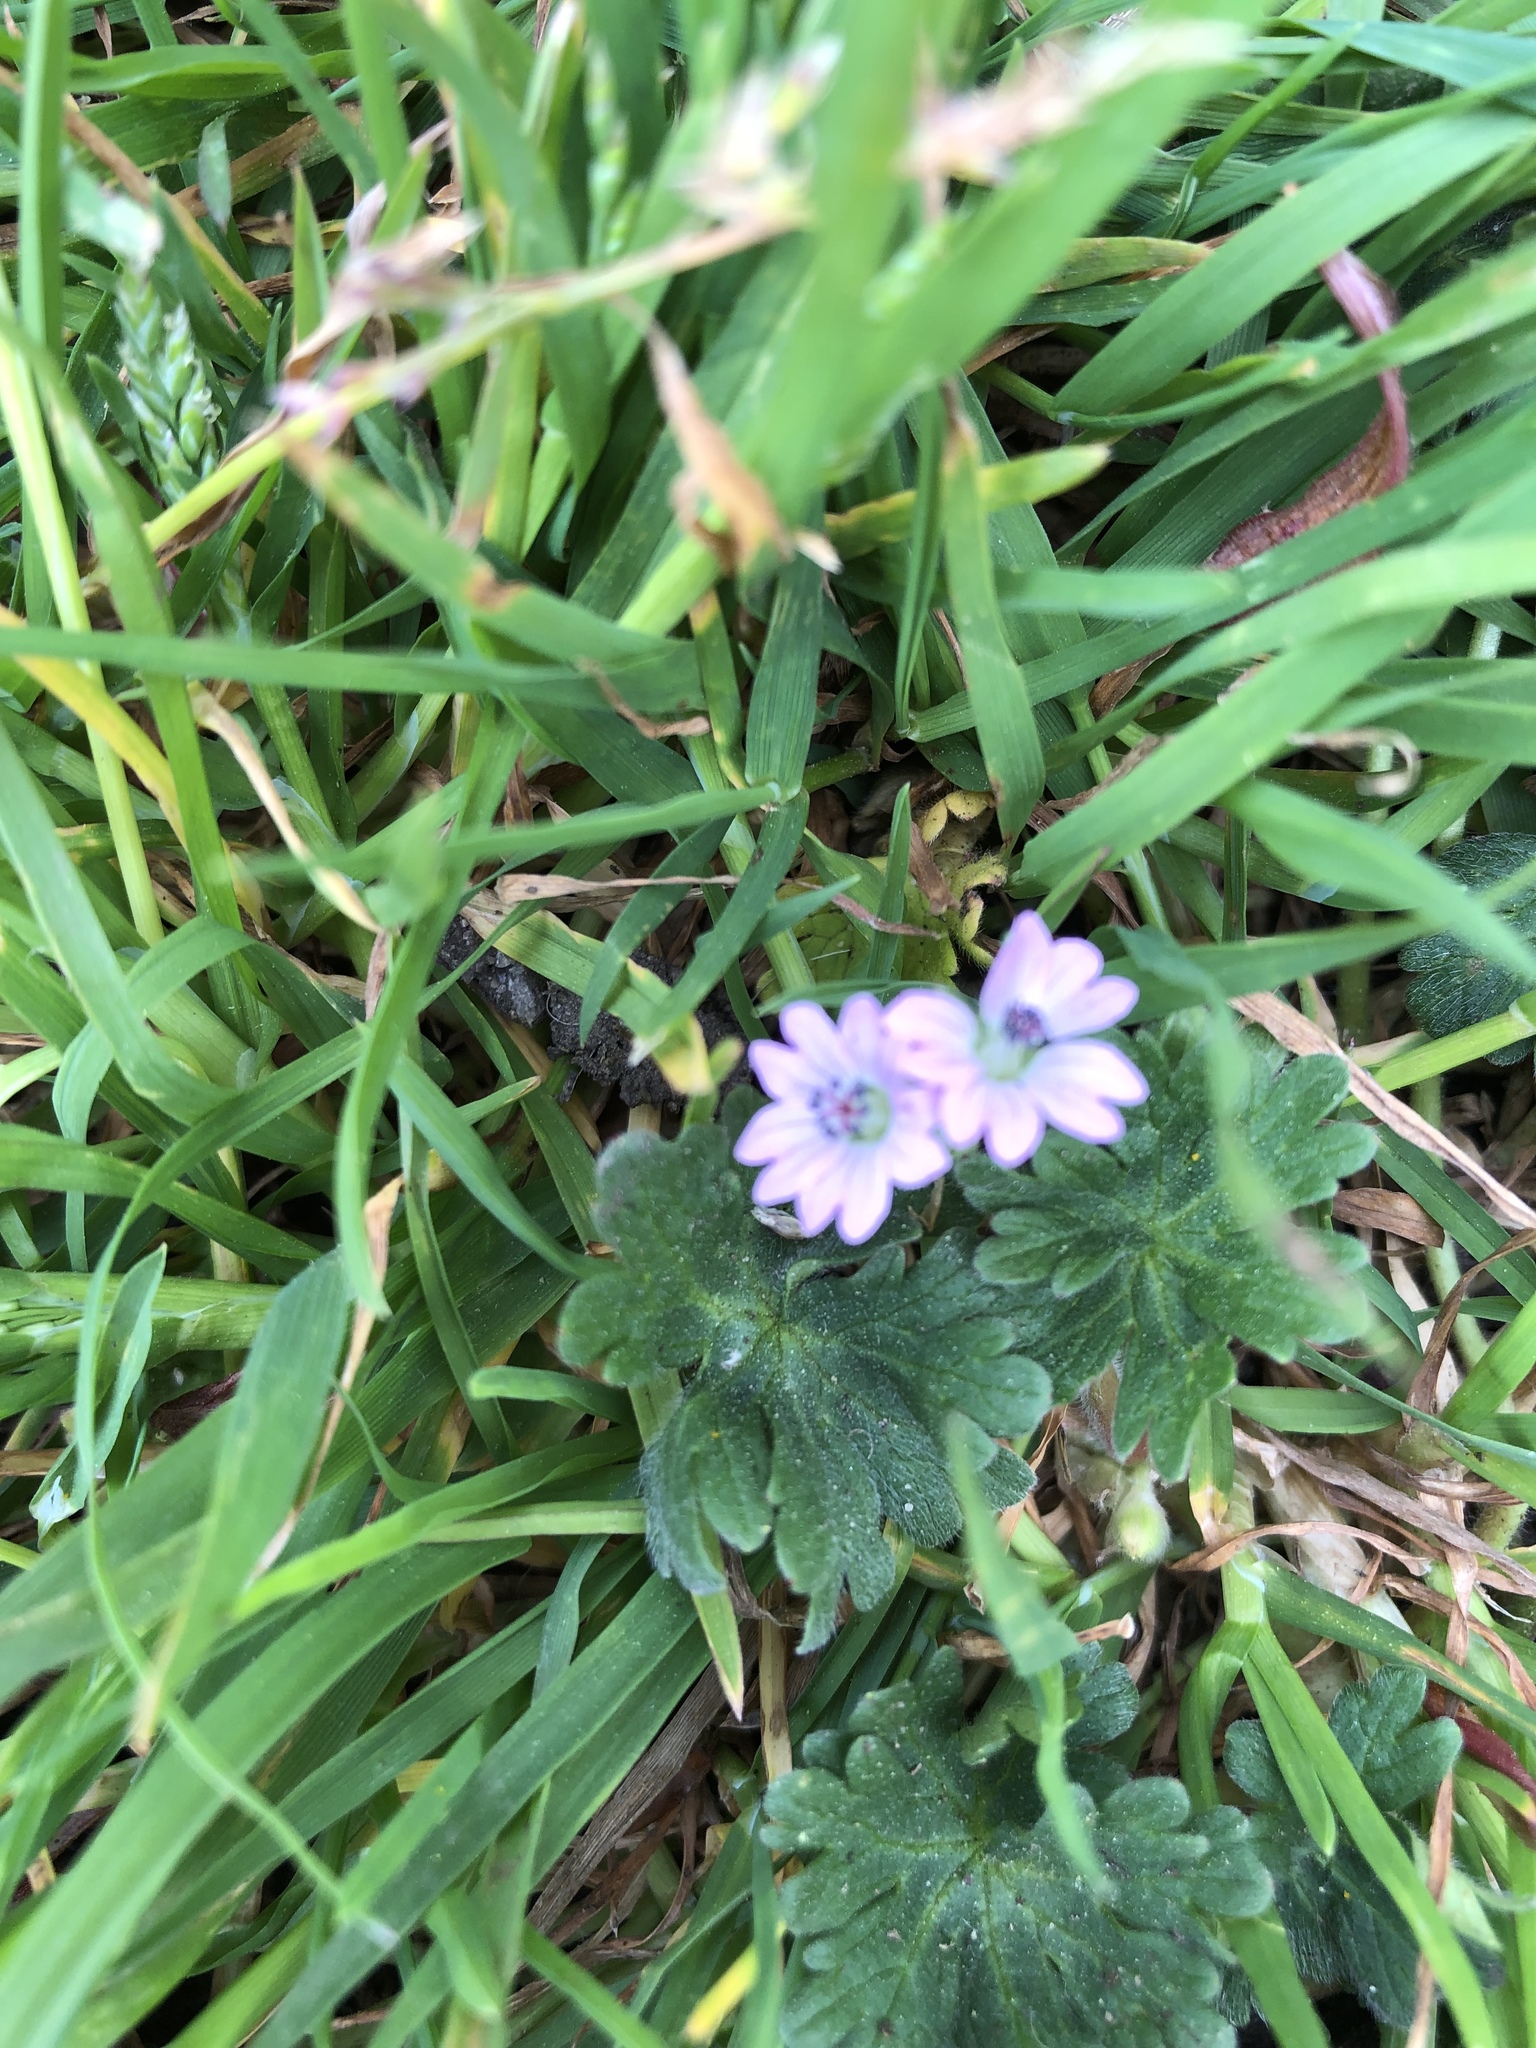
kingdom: Plantae
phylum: Tracheophyta
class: Magnoliopsida
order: Geraniales
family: Geraniaceae
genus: Geranium
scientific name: Geranium molle
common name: Dove's-foot crane's-bill
